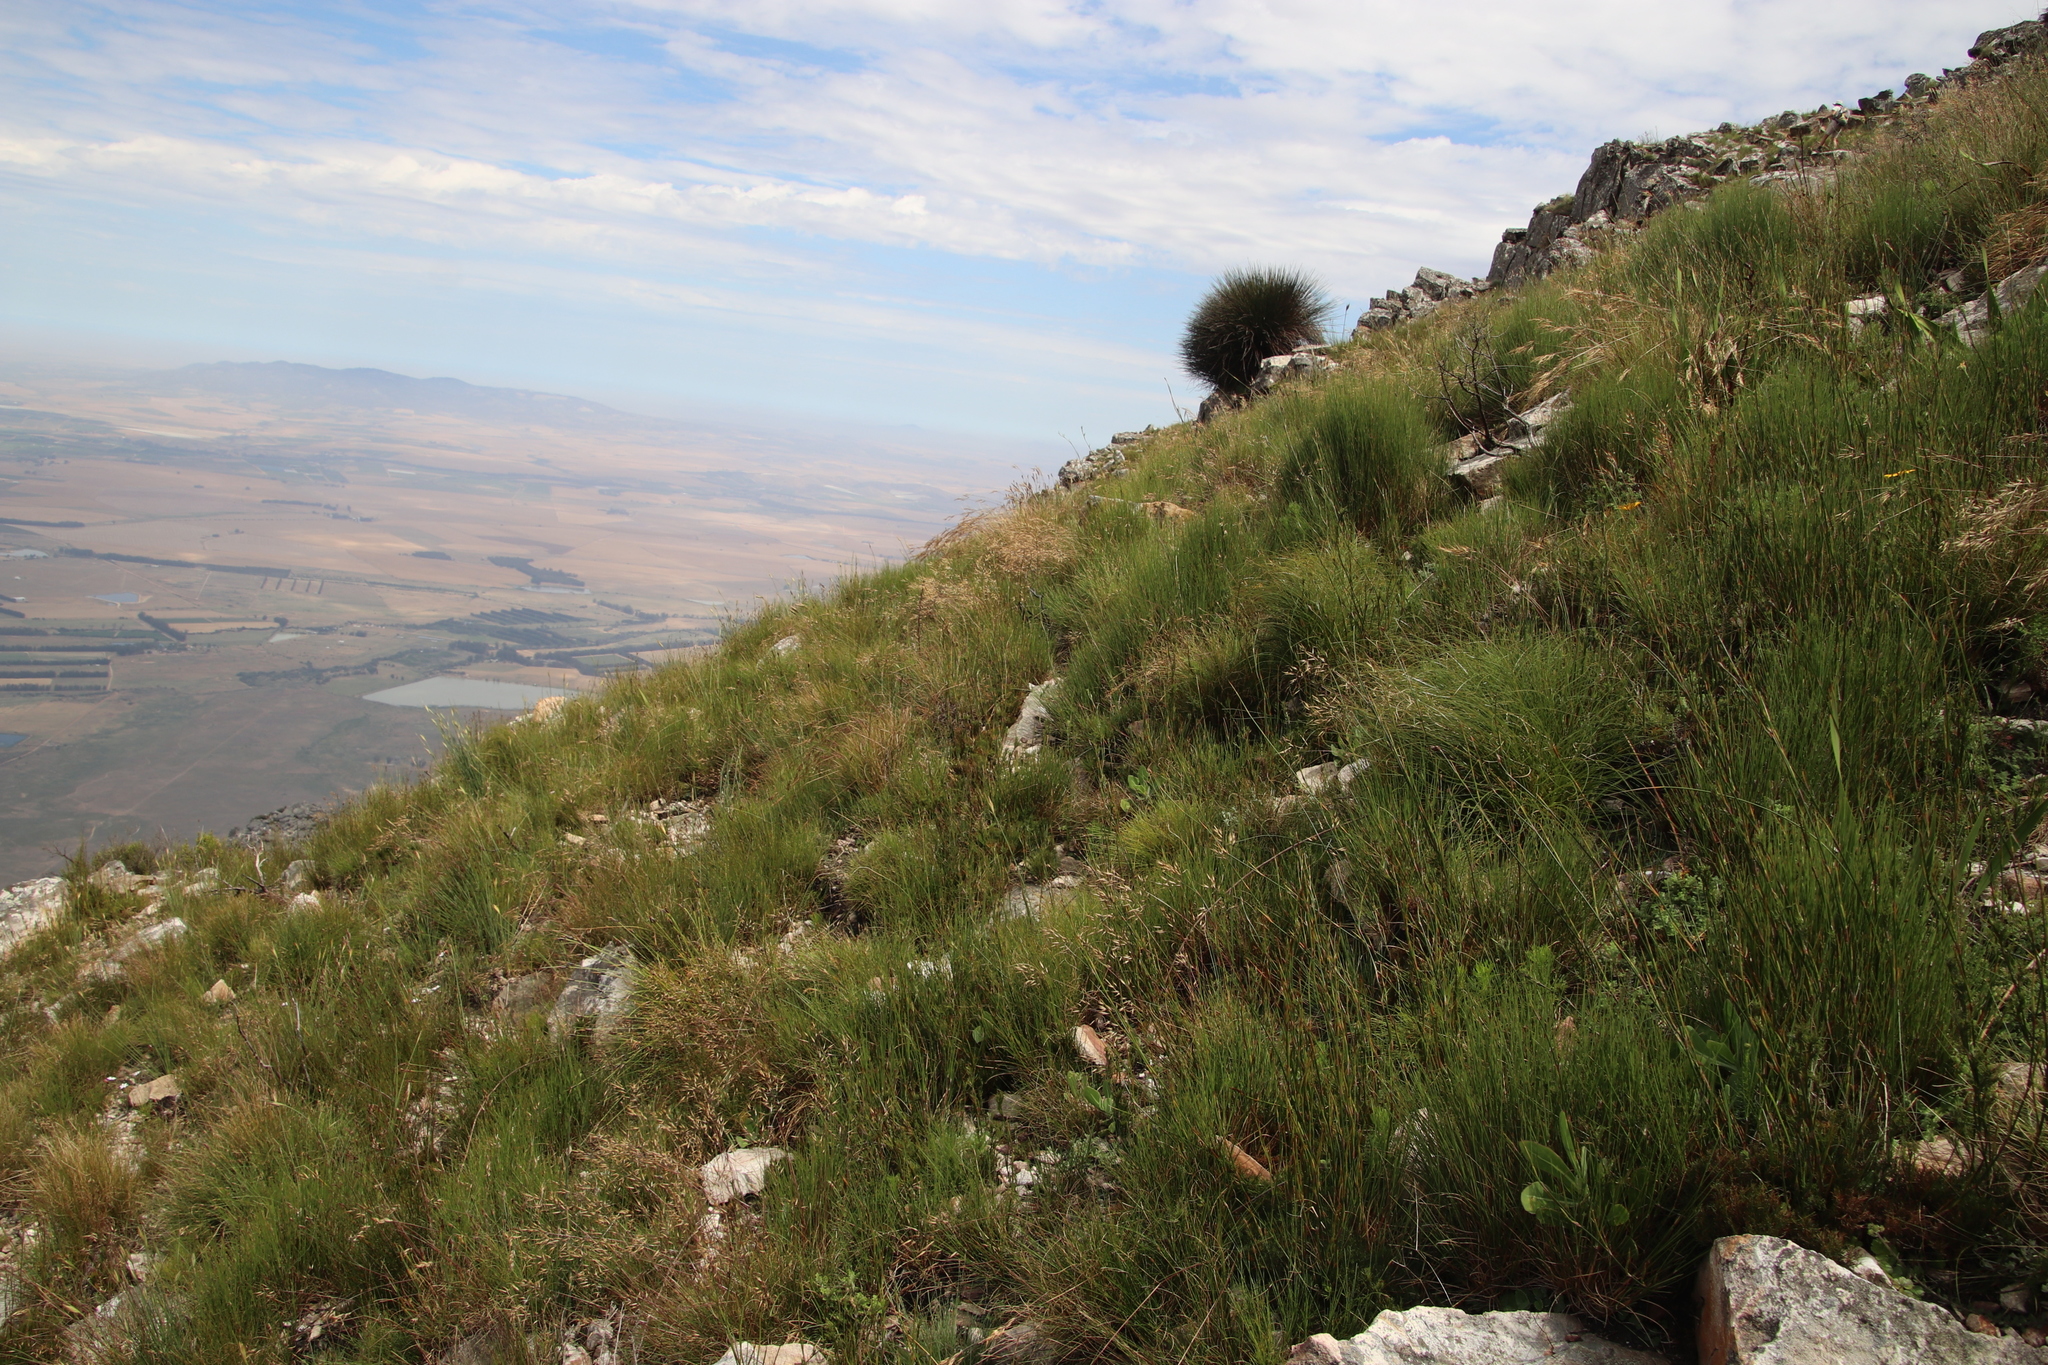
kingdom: Plantae
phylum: Tracheophyta
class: Liliopsida
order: Poales
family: Poaceae
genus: Pentameris
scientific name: Pentameris colorata
